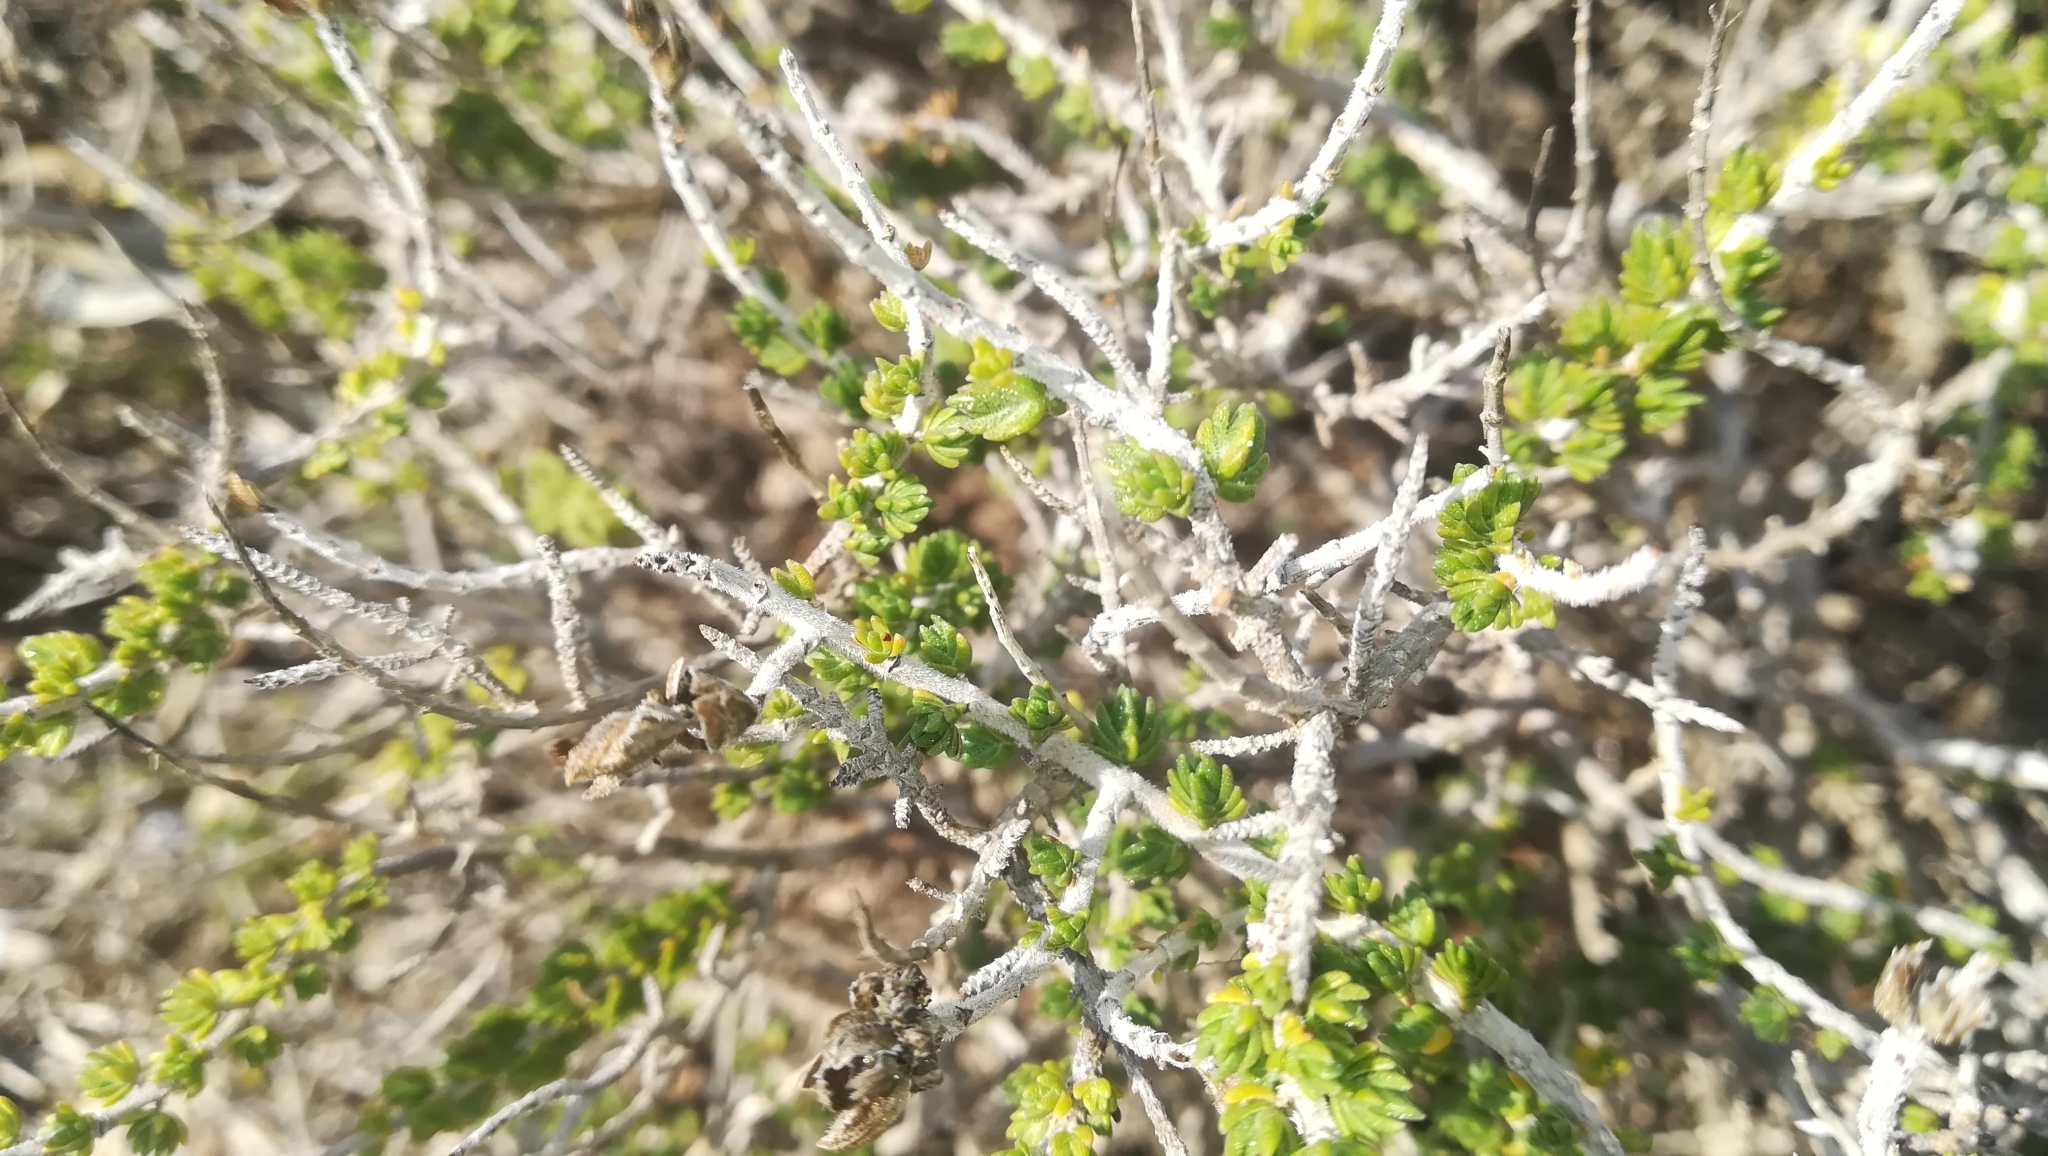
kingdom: Plantae
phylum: Tracheophyta
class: Magnoliopsida
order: Lamiales
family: Lamiaceae
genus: Thymbra
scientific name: Thymbra capitata
